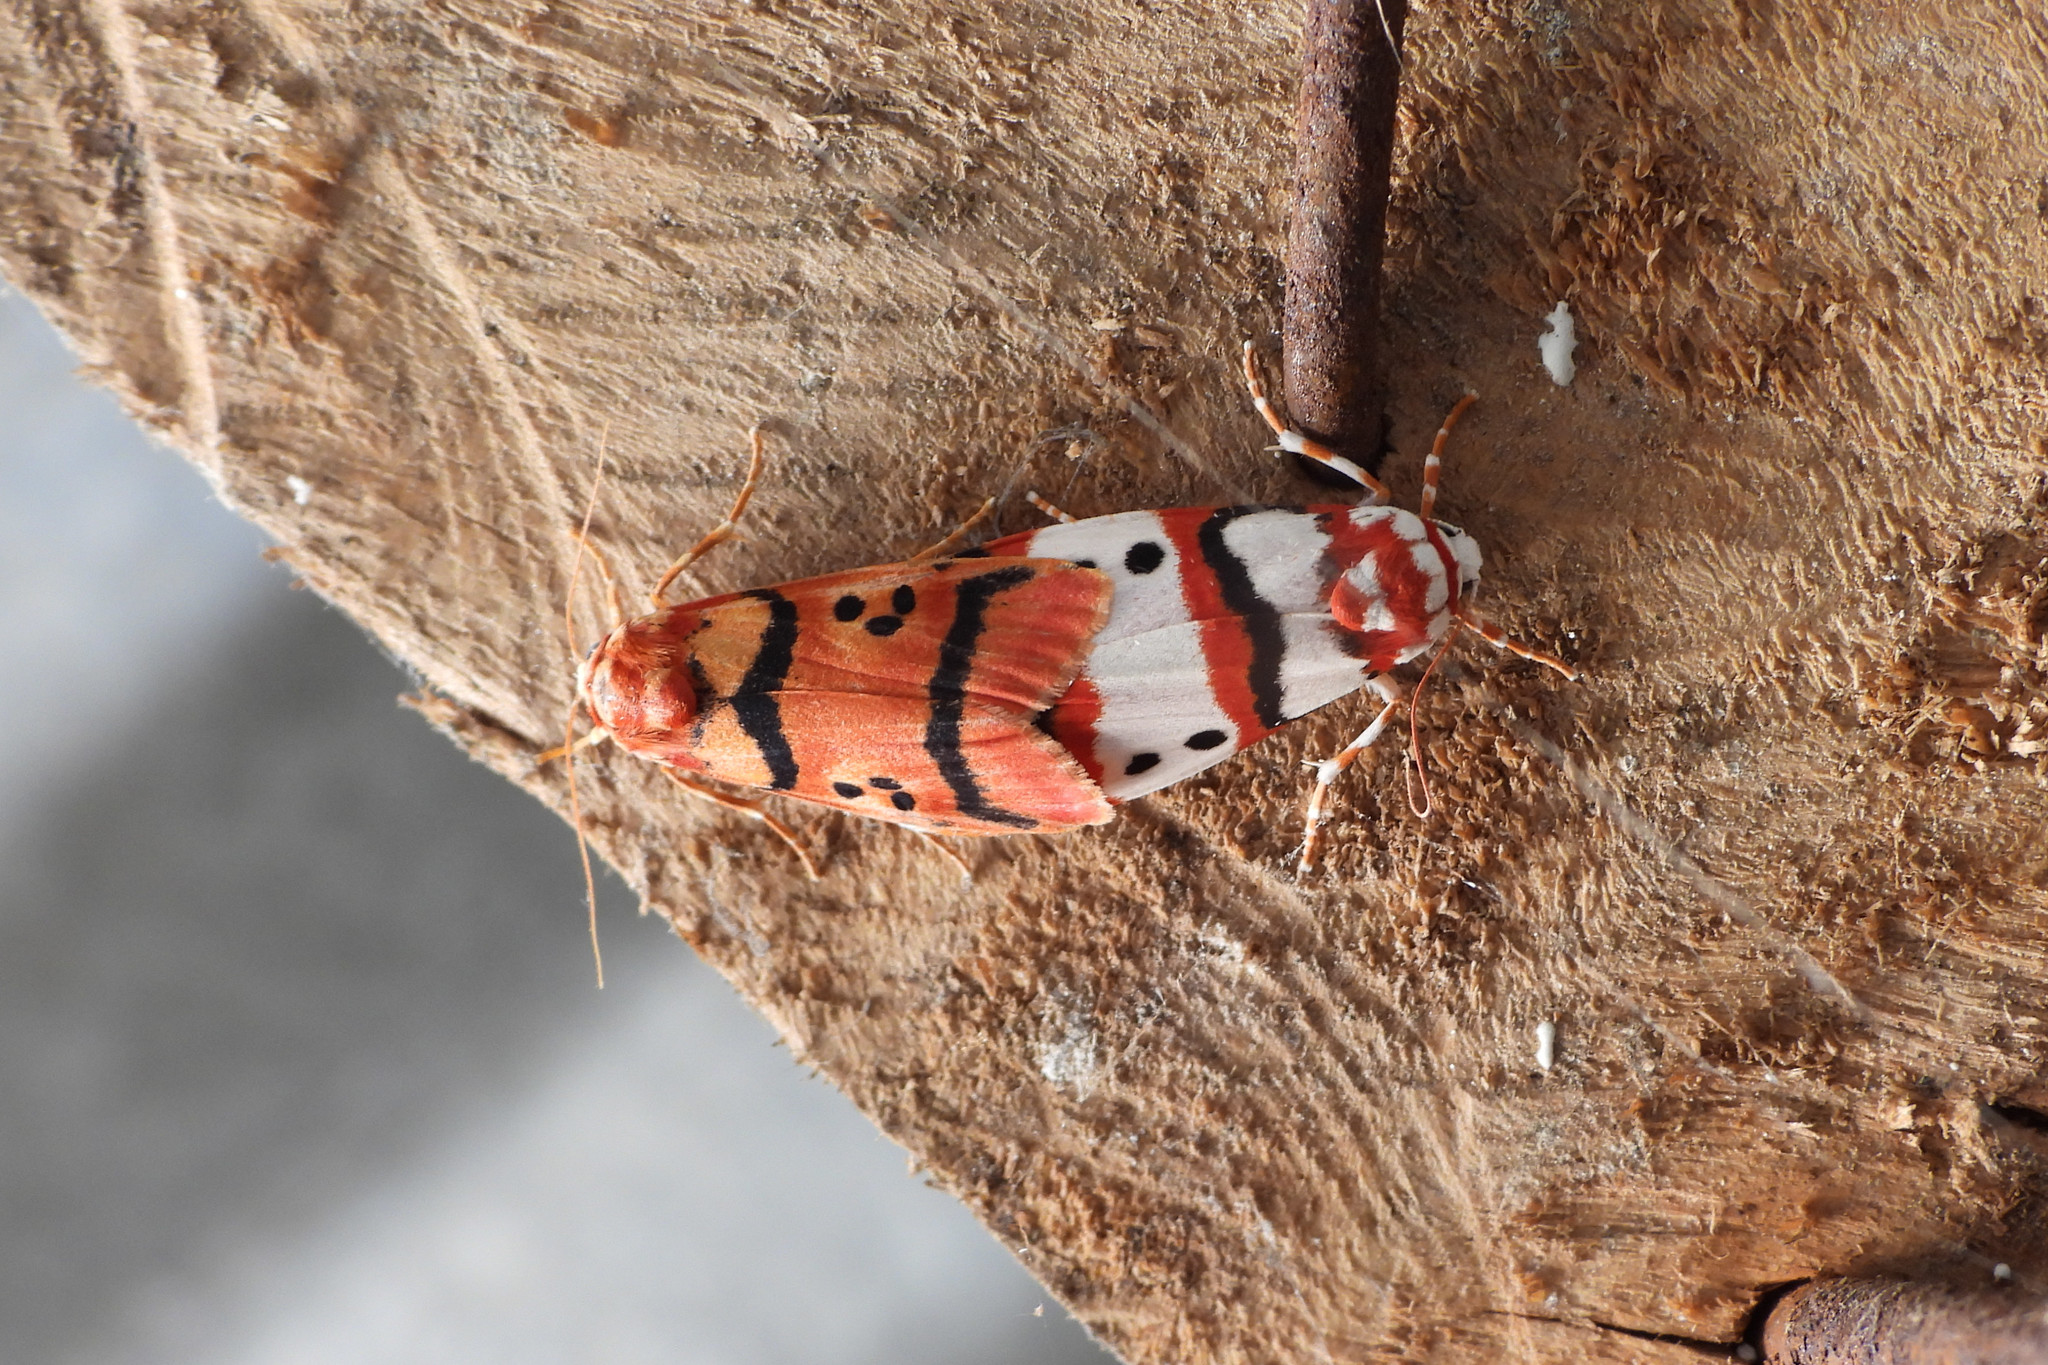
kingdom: Animalia
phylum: Arthropoda
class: Insecta
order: Lepidoptera
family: Erebidae
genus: Cyana
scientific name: Cyana coccinea
